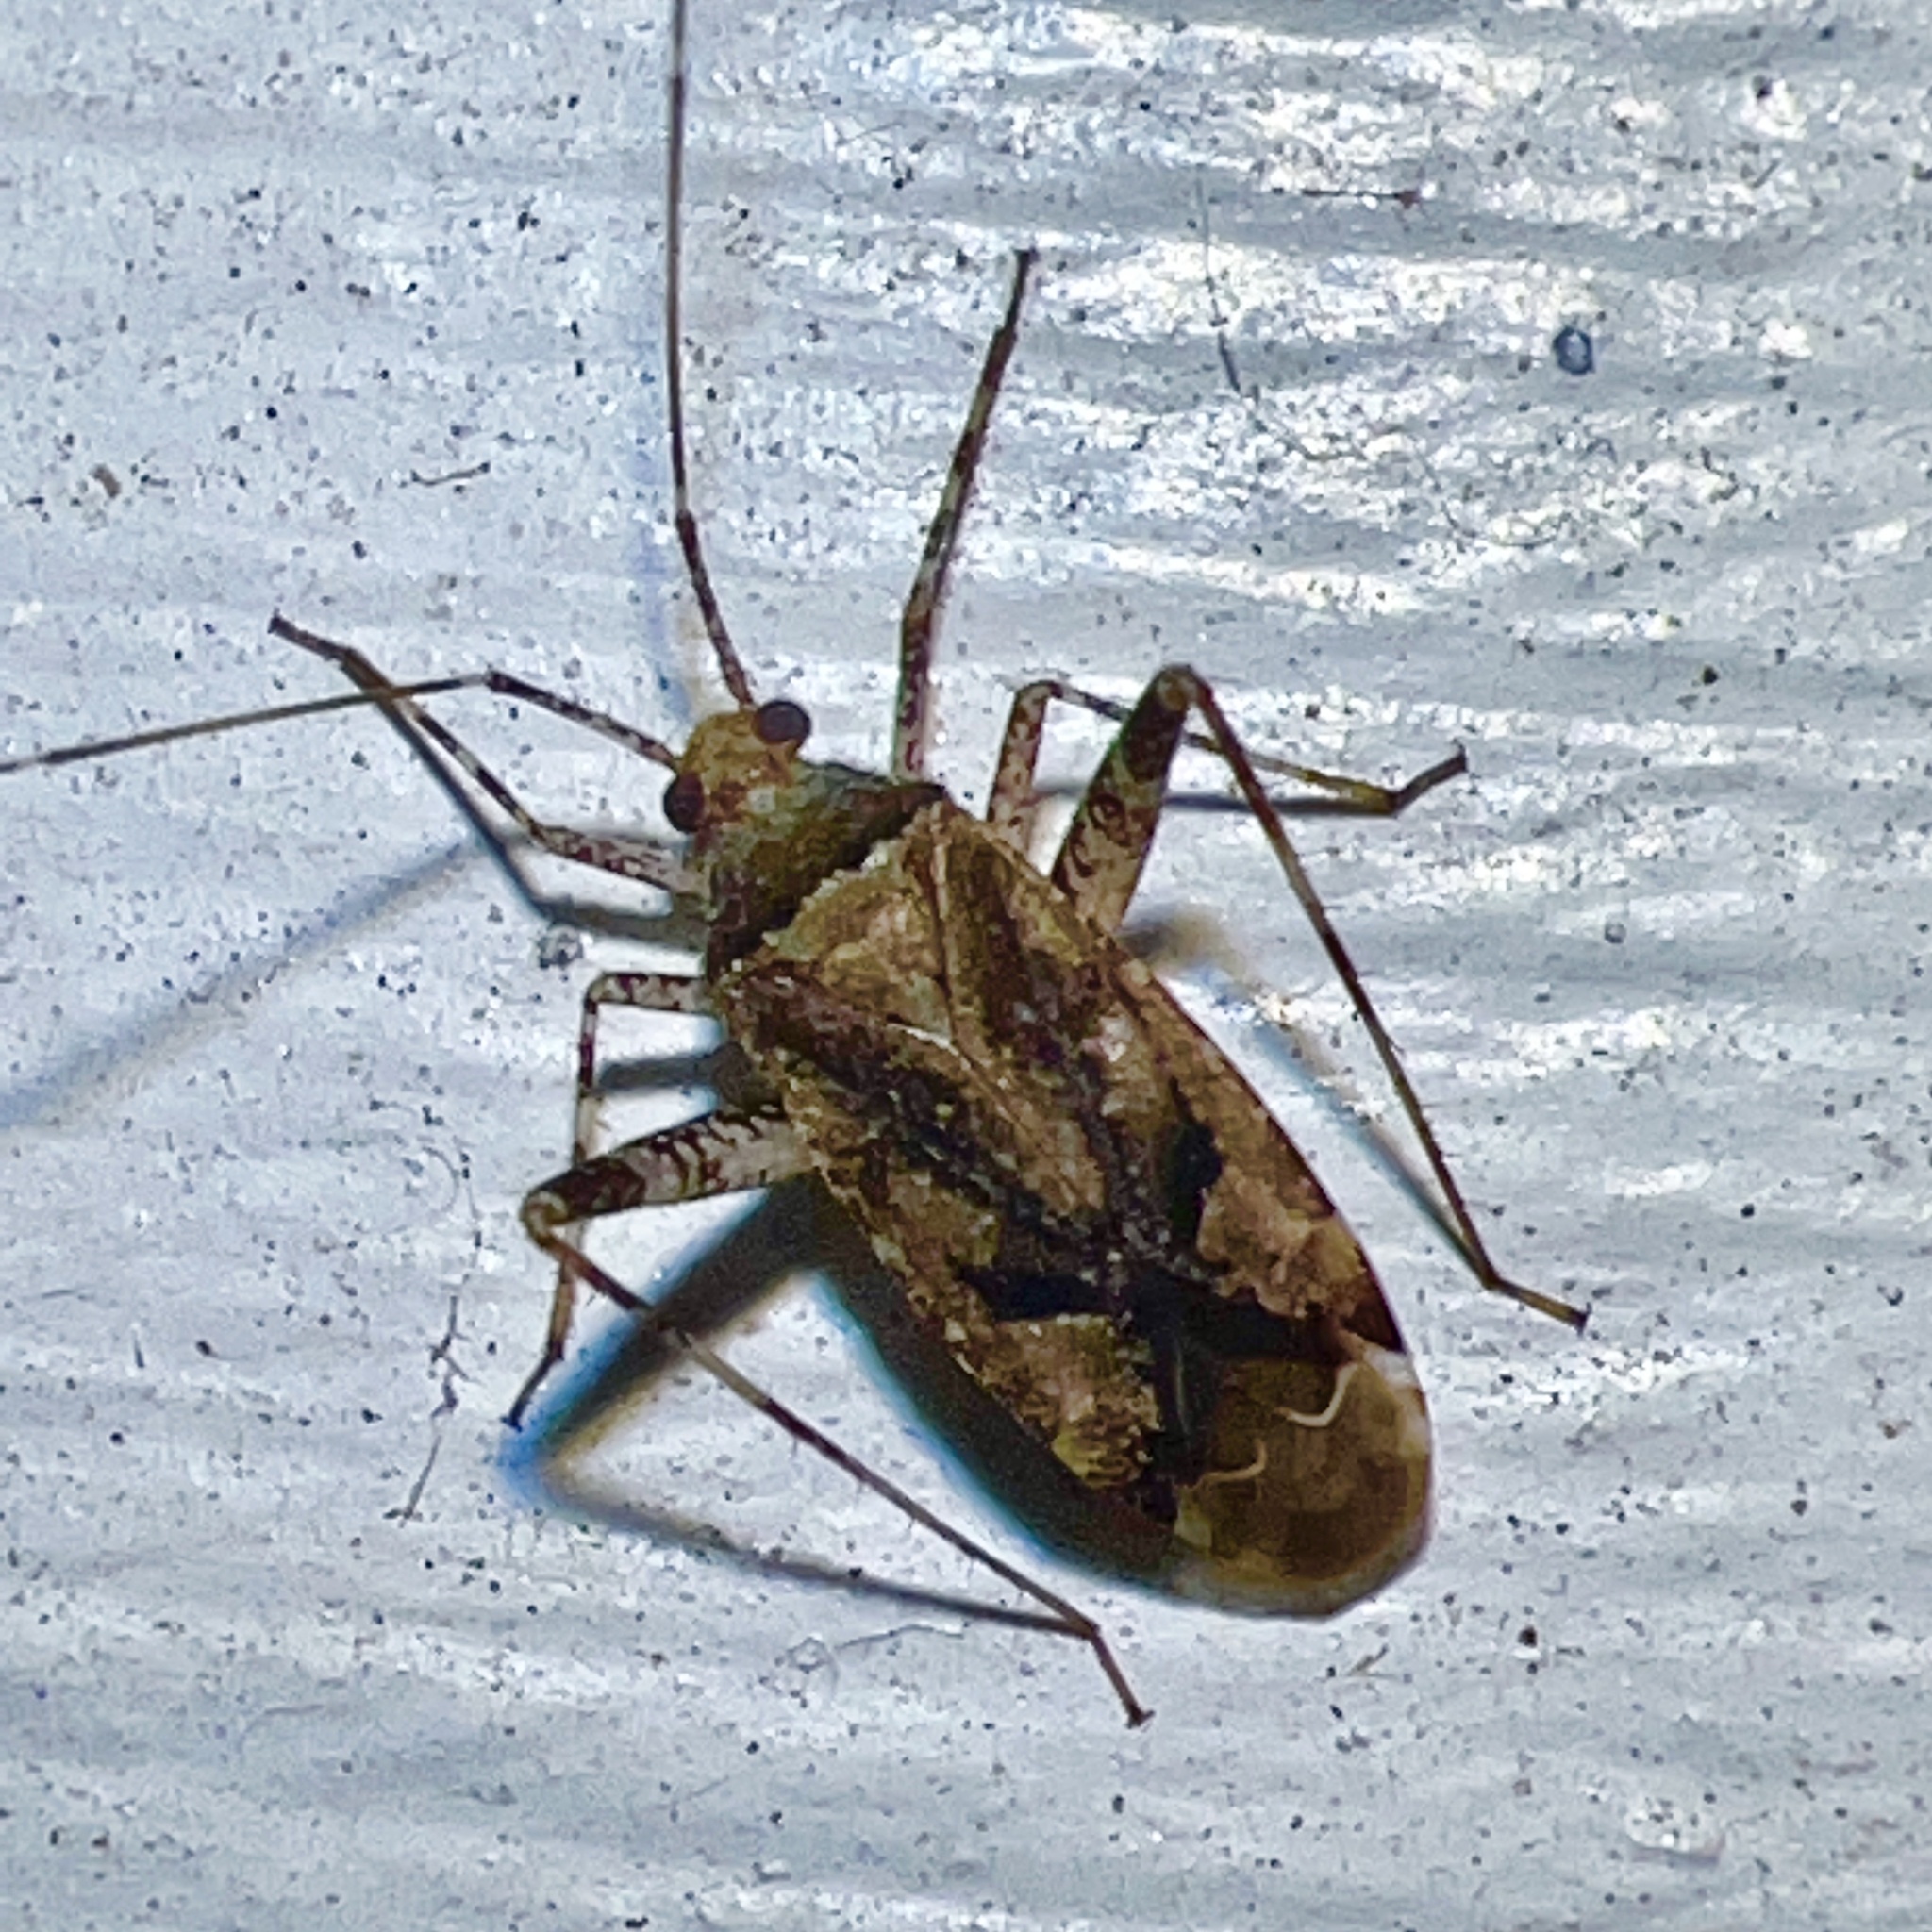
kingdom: Animalia
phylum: Arthropoda
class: Insecta
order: Hemiptera
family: Miridae
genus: Neurocolpus
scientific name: Neurocolpus nubilus
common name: Clouded plant bug
